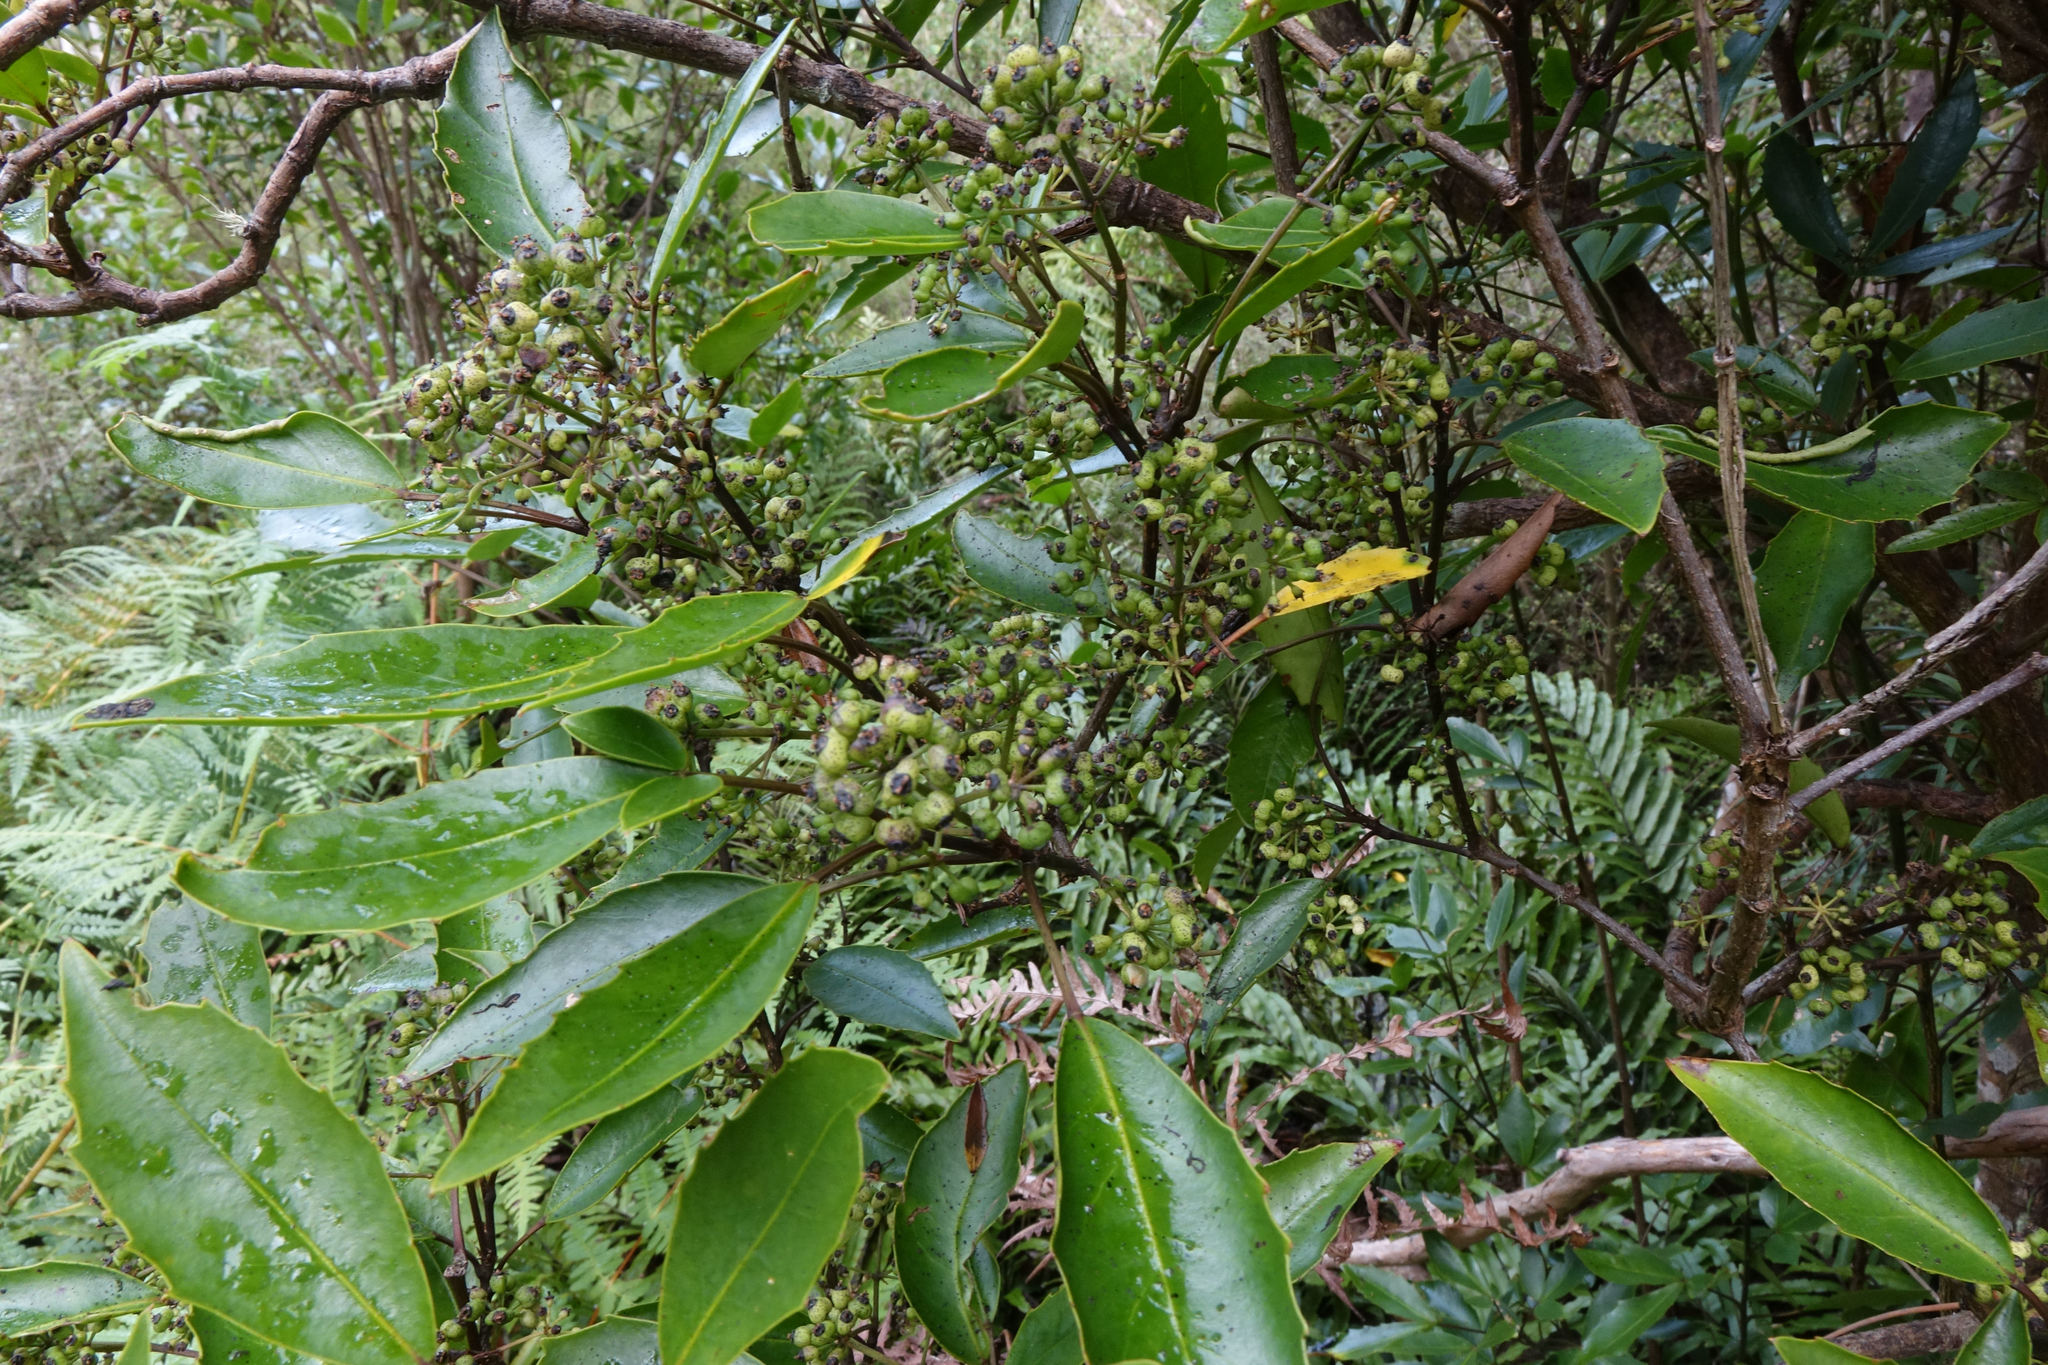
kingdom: Plantae
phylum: Tracheophyta
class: Magnoliopsida
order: Apiales
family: Araliaceae
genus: Raukaua
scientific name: Raukaua simplex
